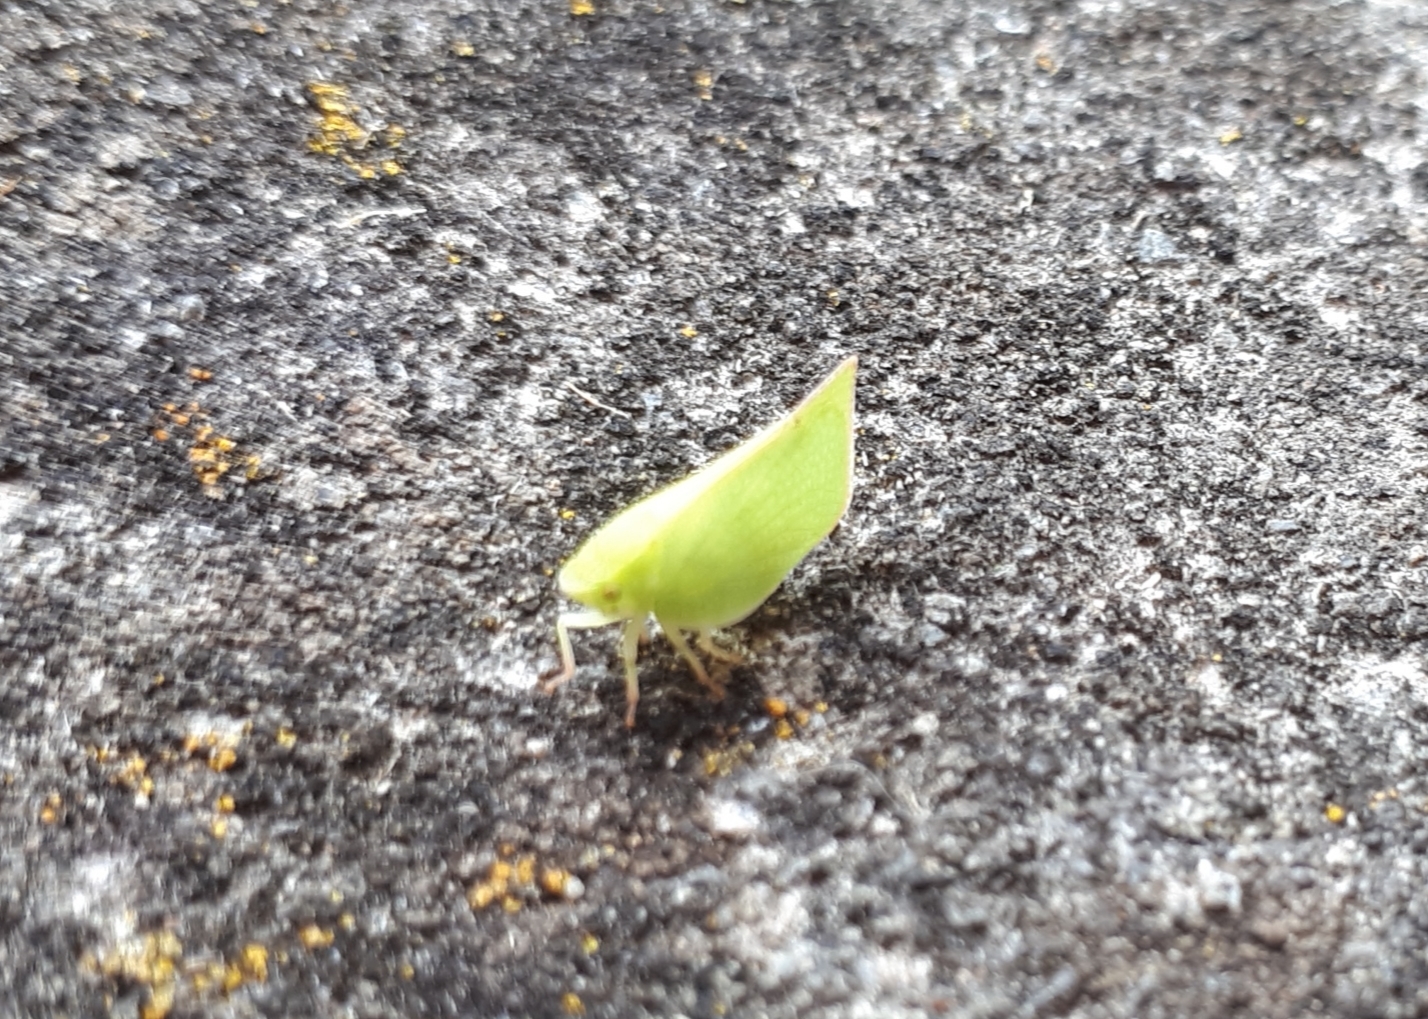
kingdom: Animalia
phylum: Arthropoda
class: Insecta
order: Hemiptera
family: Flatidae
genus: Siphanta
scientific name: Siphanta acuta
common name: Torpedo bug
